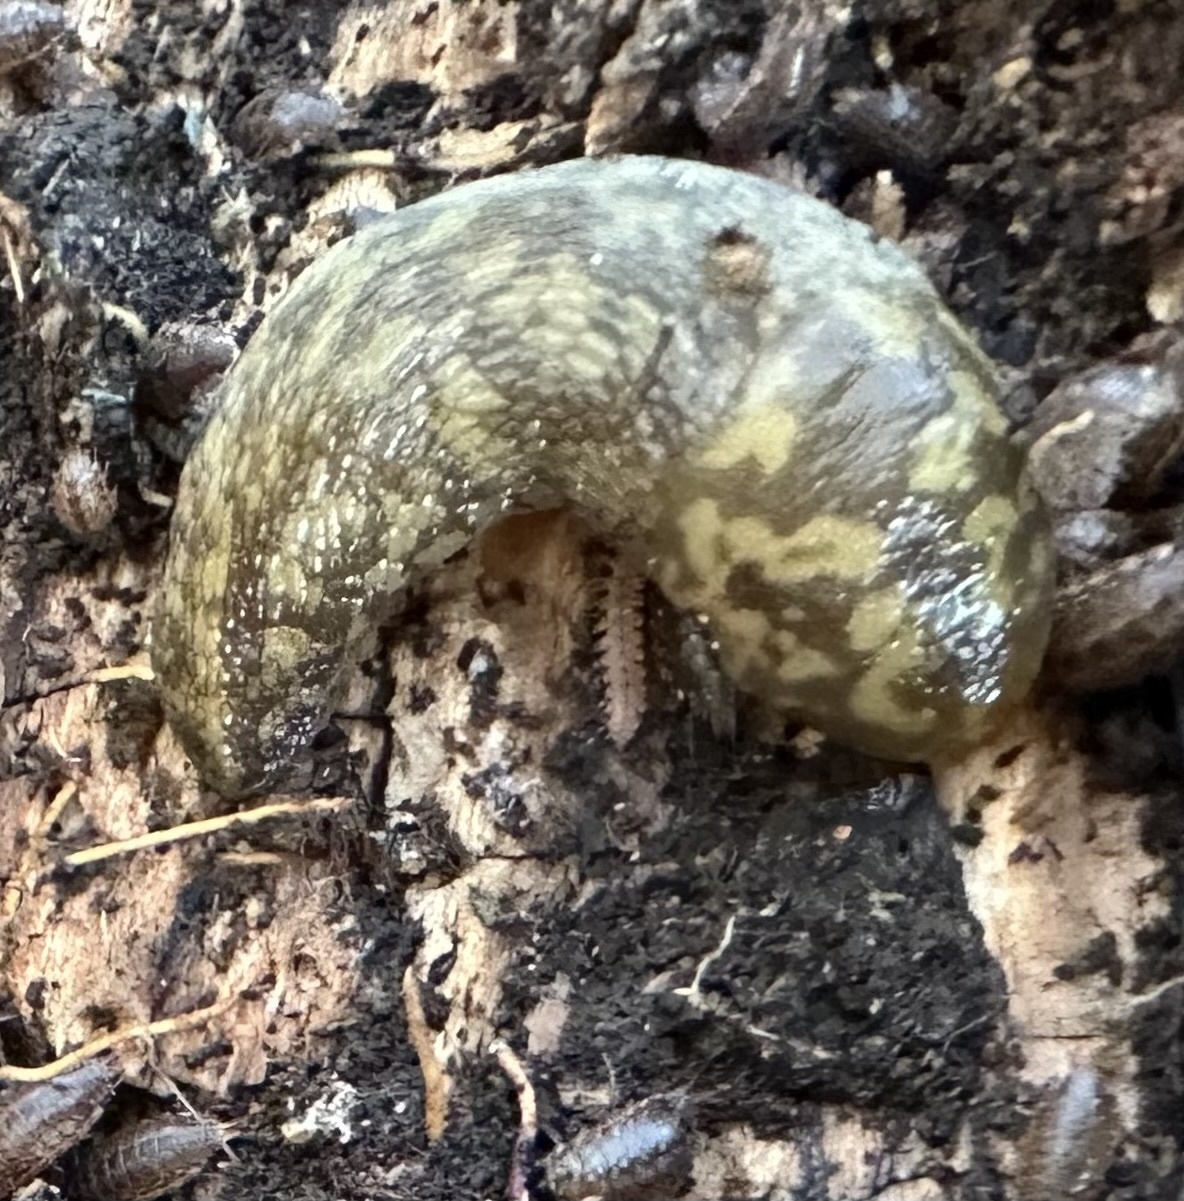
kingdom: Animalia
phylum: Mollusca
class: Gastropoda
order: Stylommatophora
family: Limacidae
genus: Limacus
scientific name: Limacus maculatus
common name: Irish yellow slug
